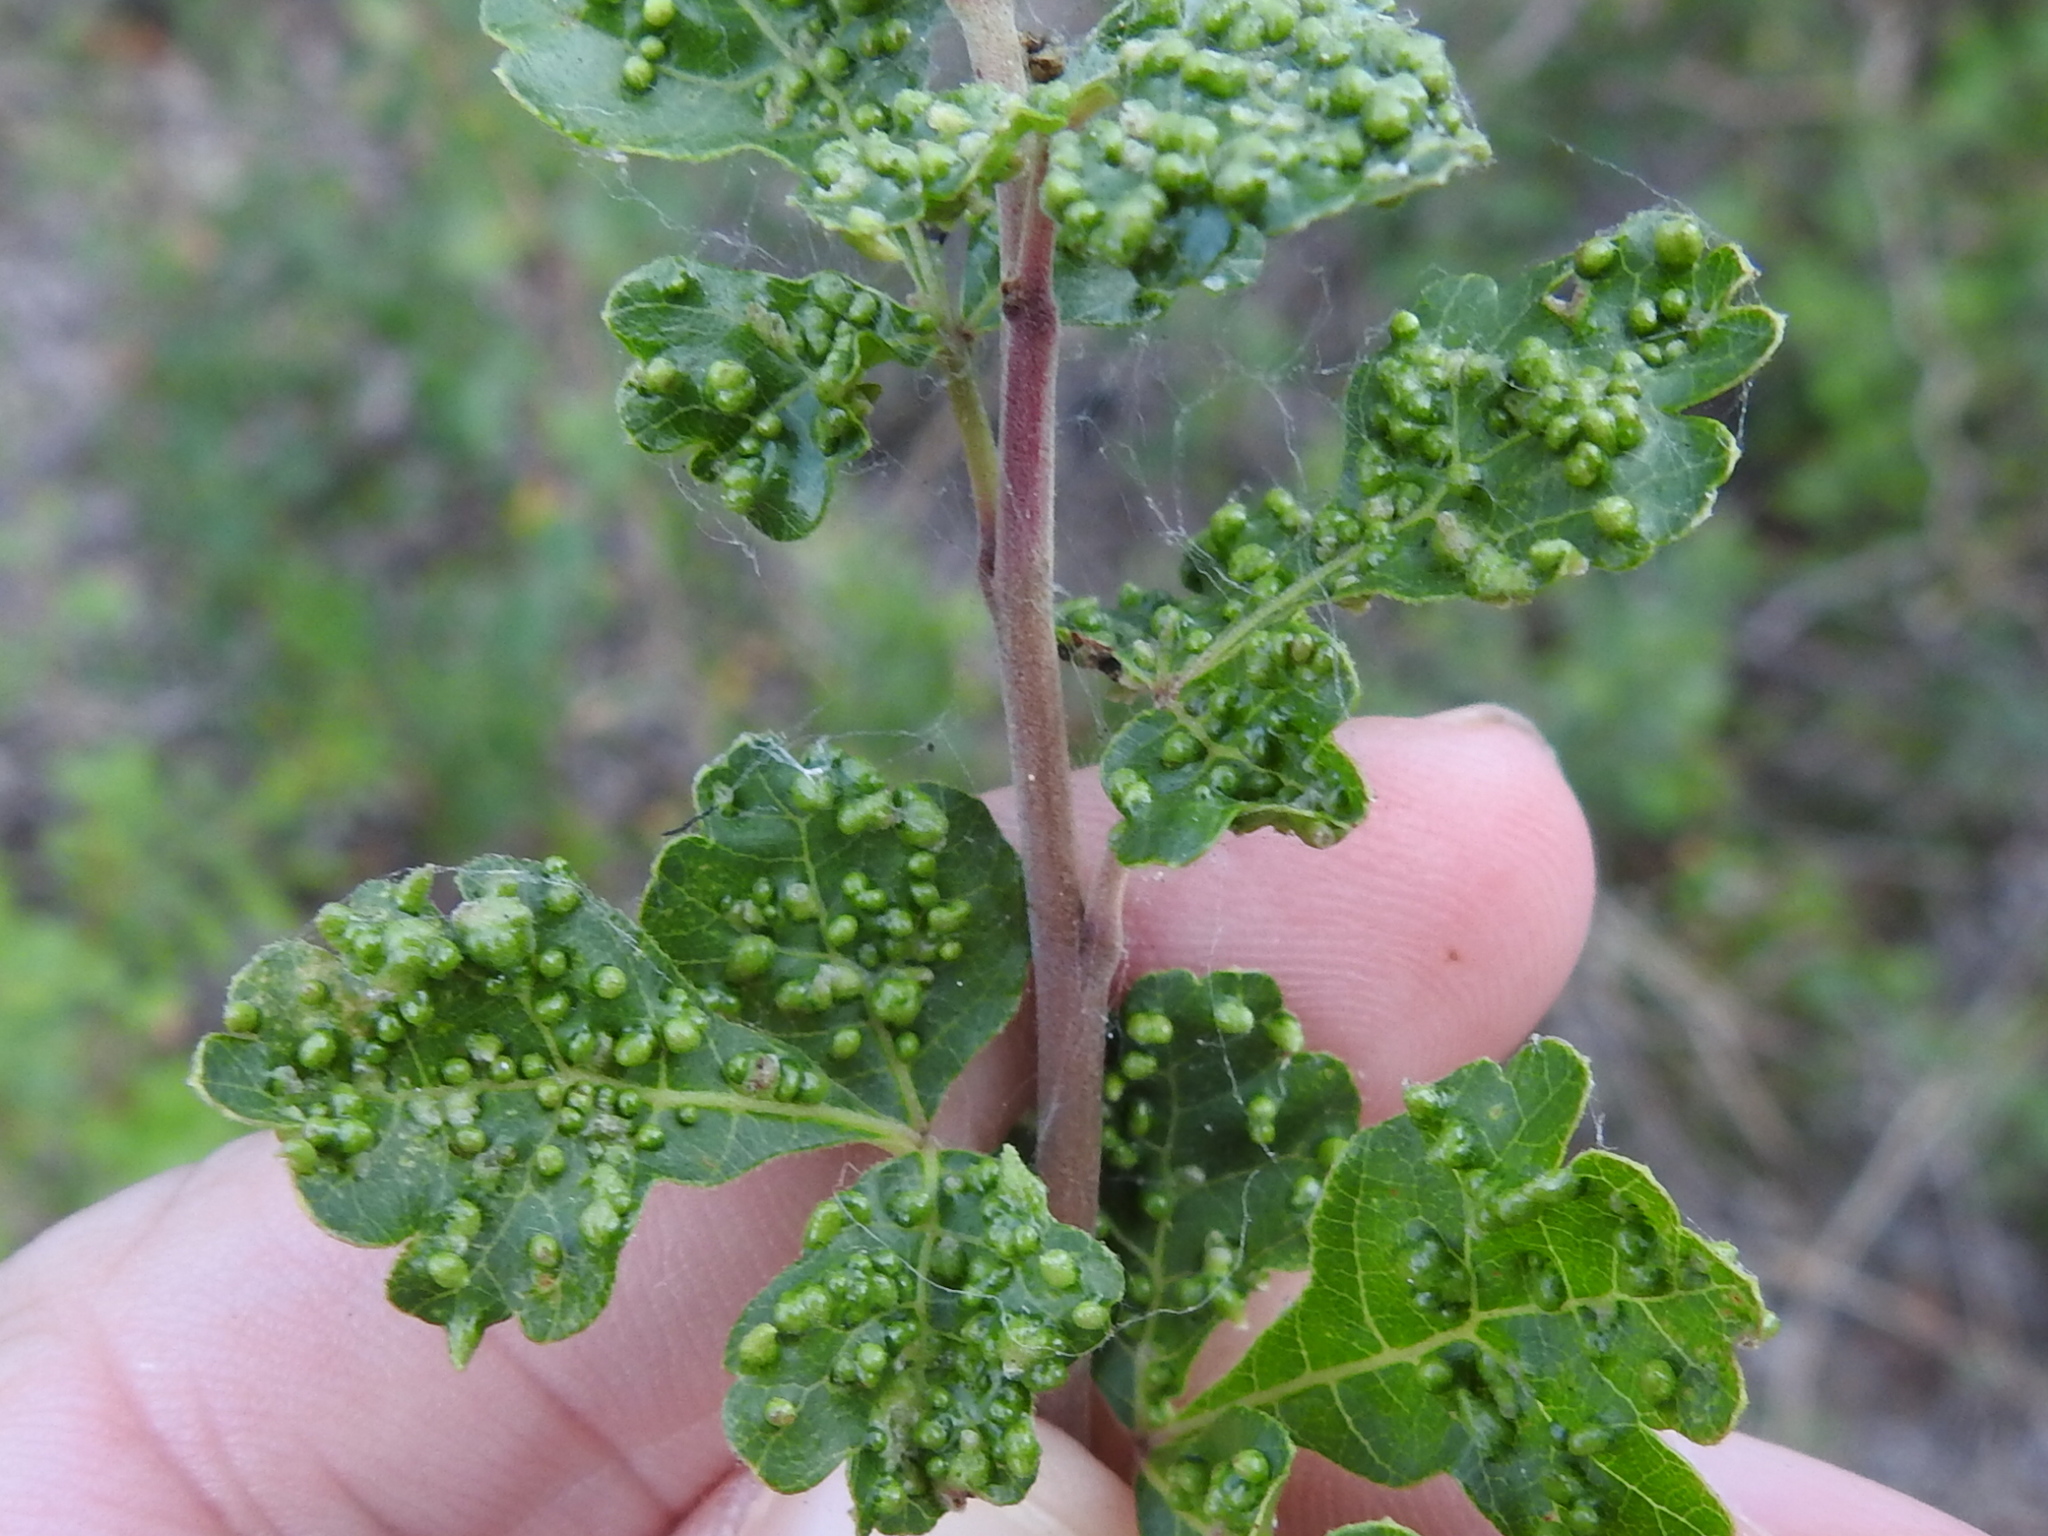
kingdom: Animalia
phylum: Arthropoda
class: Arachnida
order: Trombidiformes
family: Eriophyidae
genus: Aculops
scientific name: Aculops
